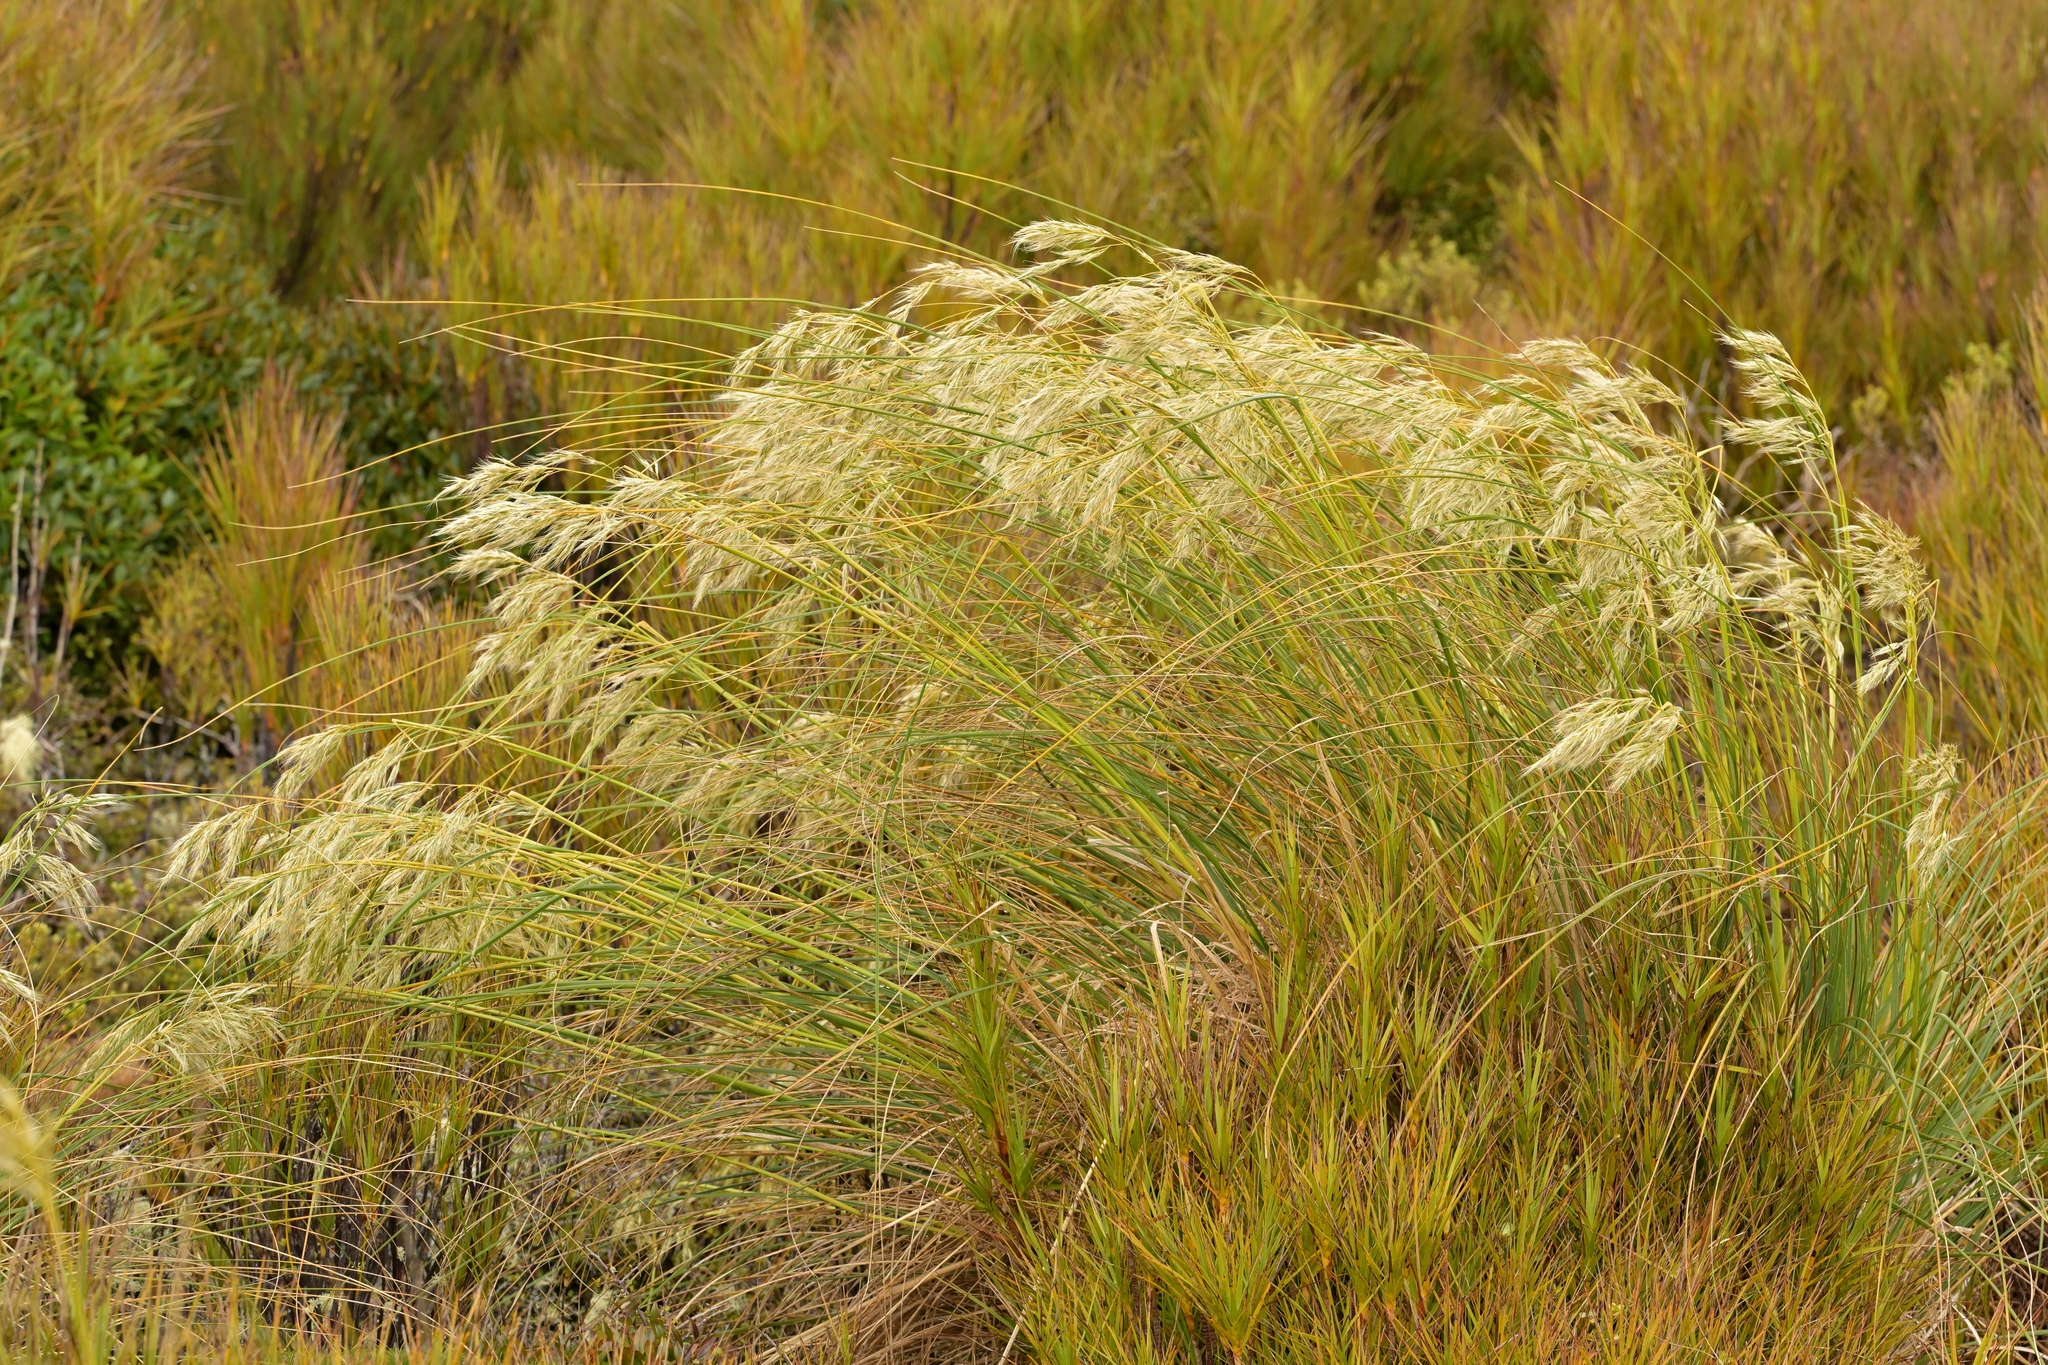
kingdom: Plantae
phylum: Tracheophyta
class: Liliopsida
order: Poales
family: Poaceae
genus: Chionochloa
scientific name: Chionochloa antarctica
